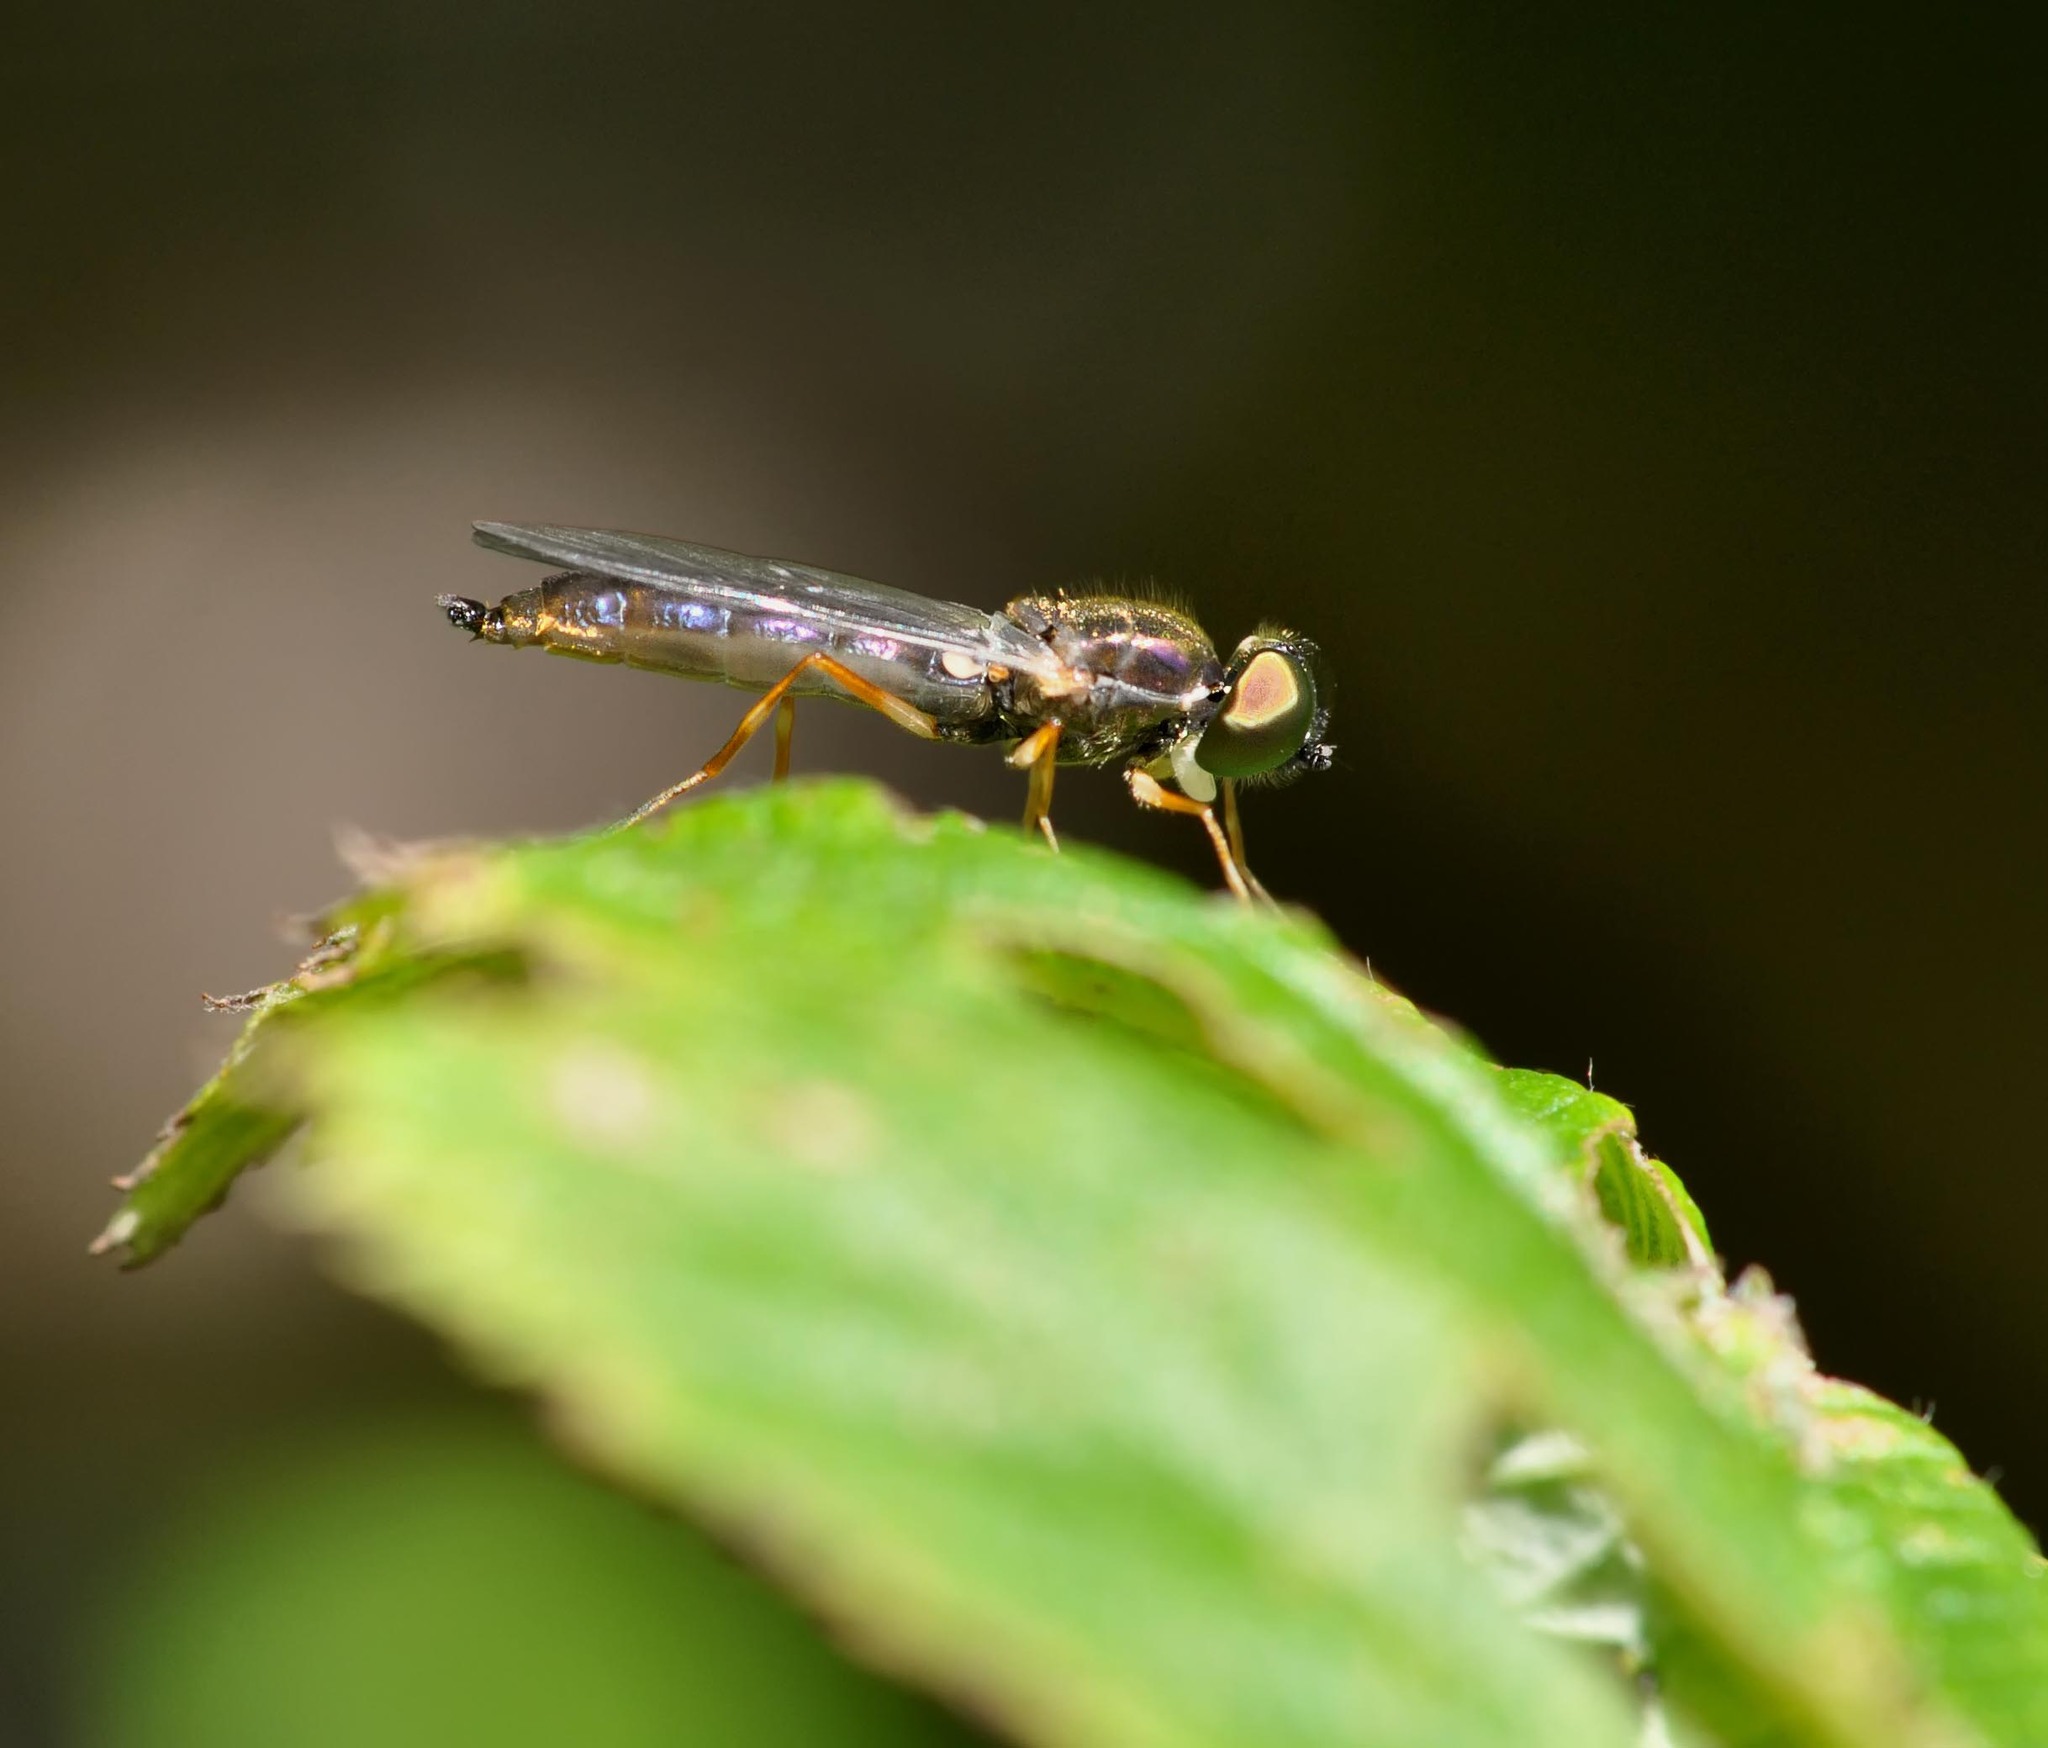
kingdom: Animalia
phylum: Arthropoda
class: Insecta
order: Diptera
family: Stratiomyidae
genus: Sargus
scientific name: Sargus bipunctatus
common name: Twin-spot centurion
